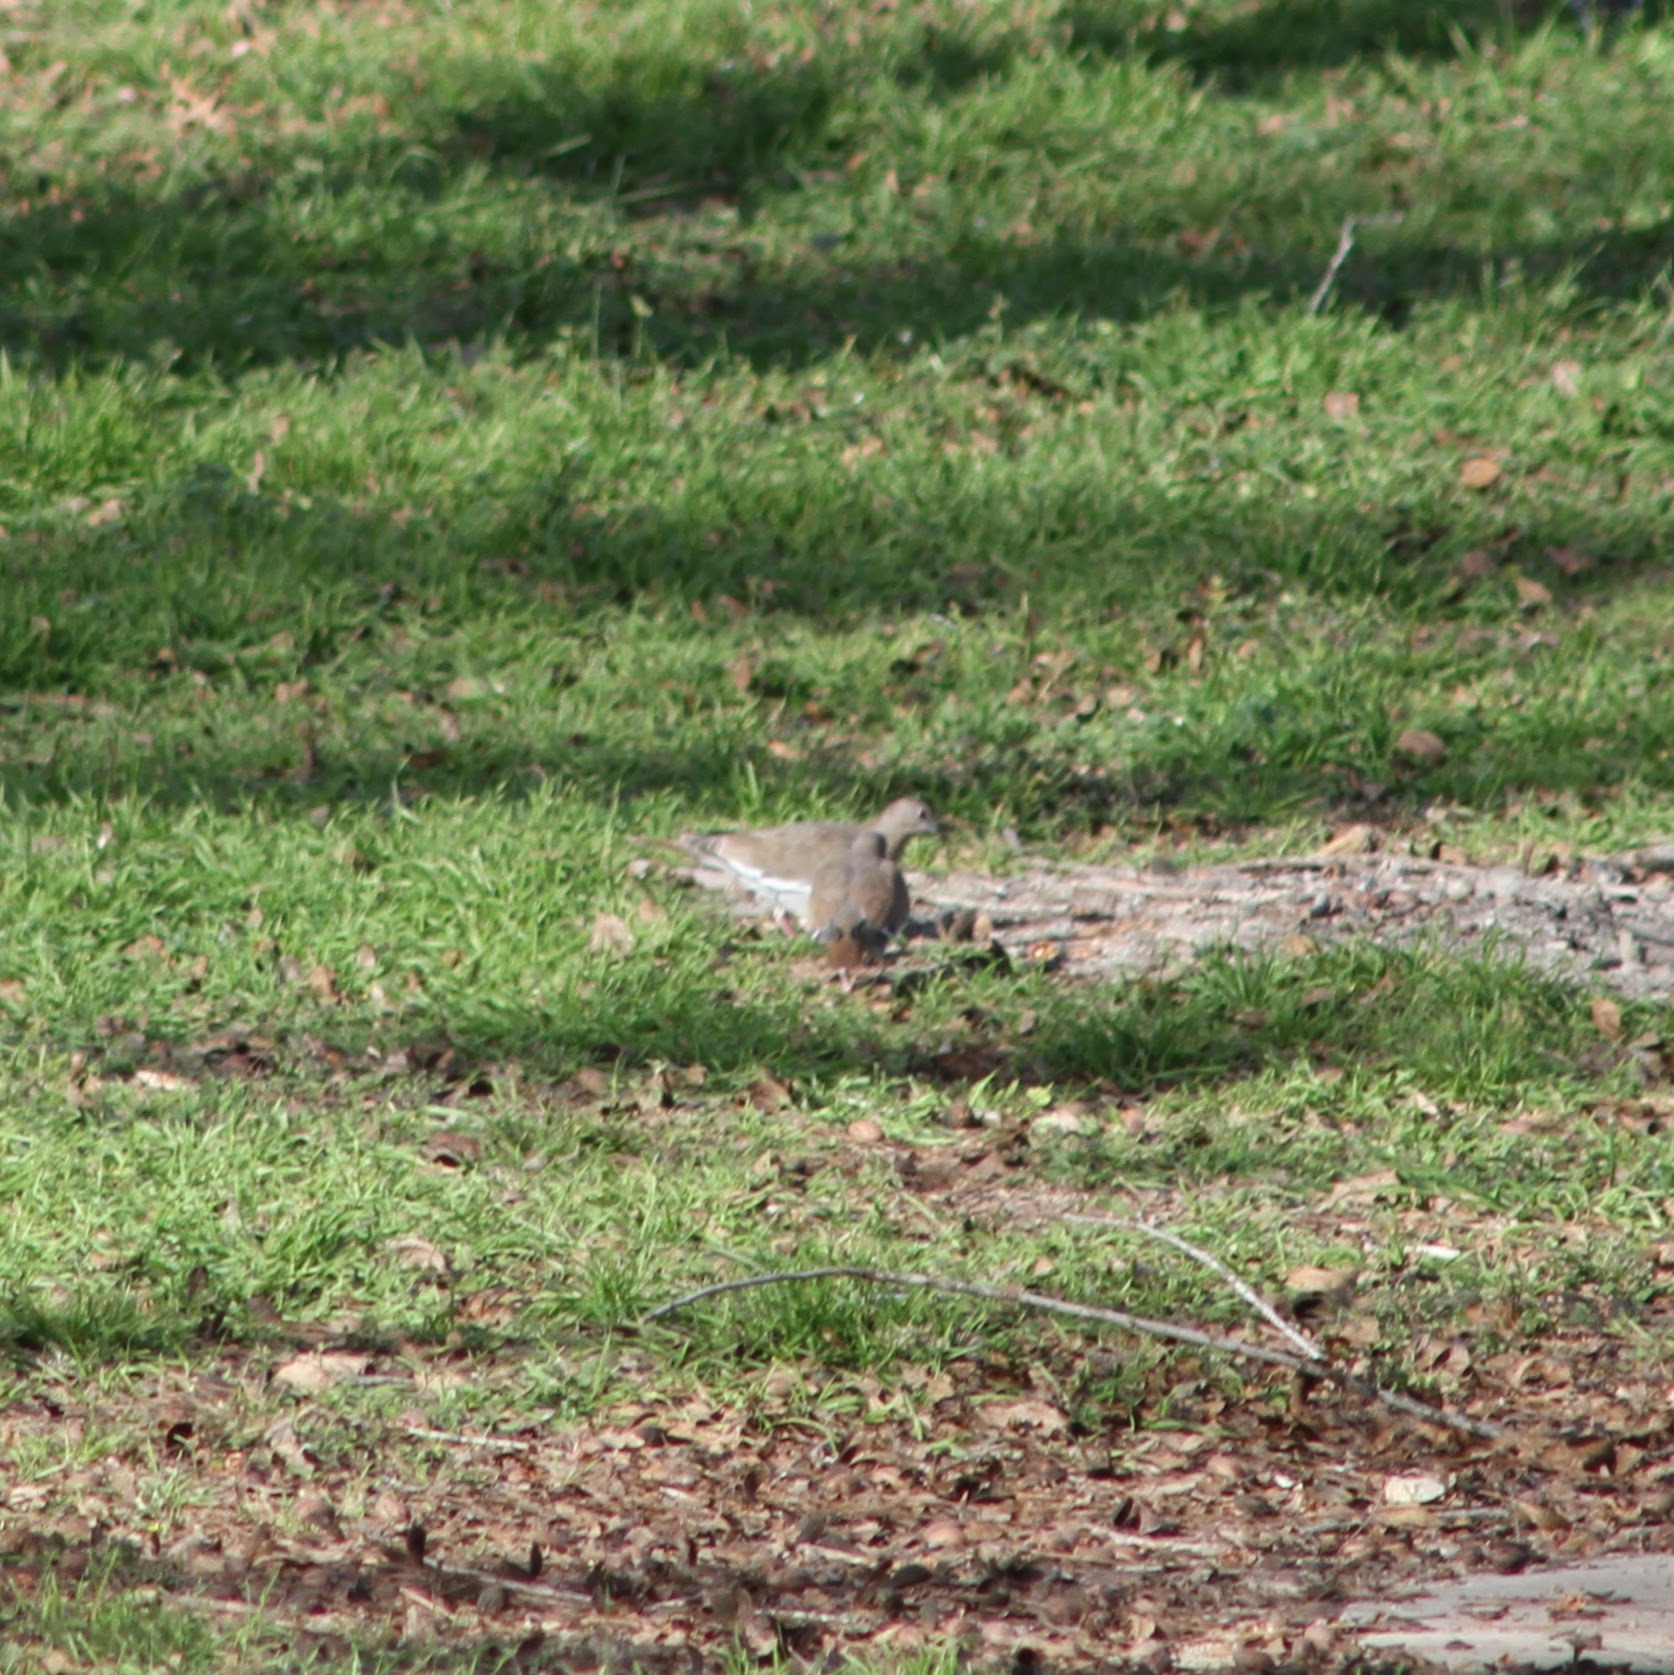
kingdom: Animalia
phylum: Chordata
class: Aves
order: Columbiformes
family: Columbidae
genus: Zenaida
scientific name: Zenaida asiatica
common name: White-winged dove
